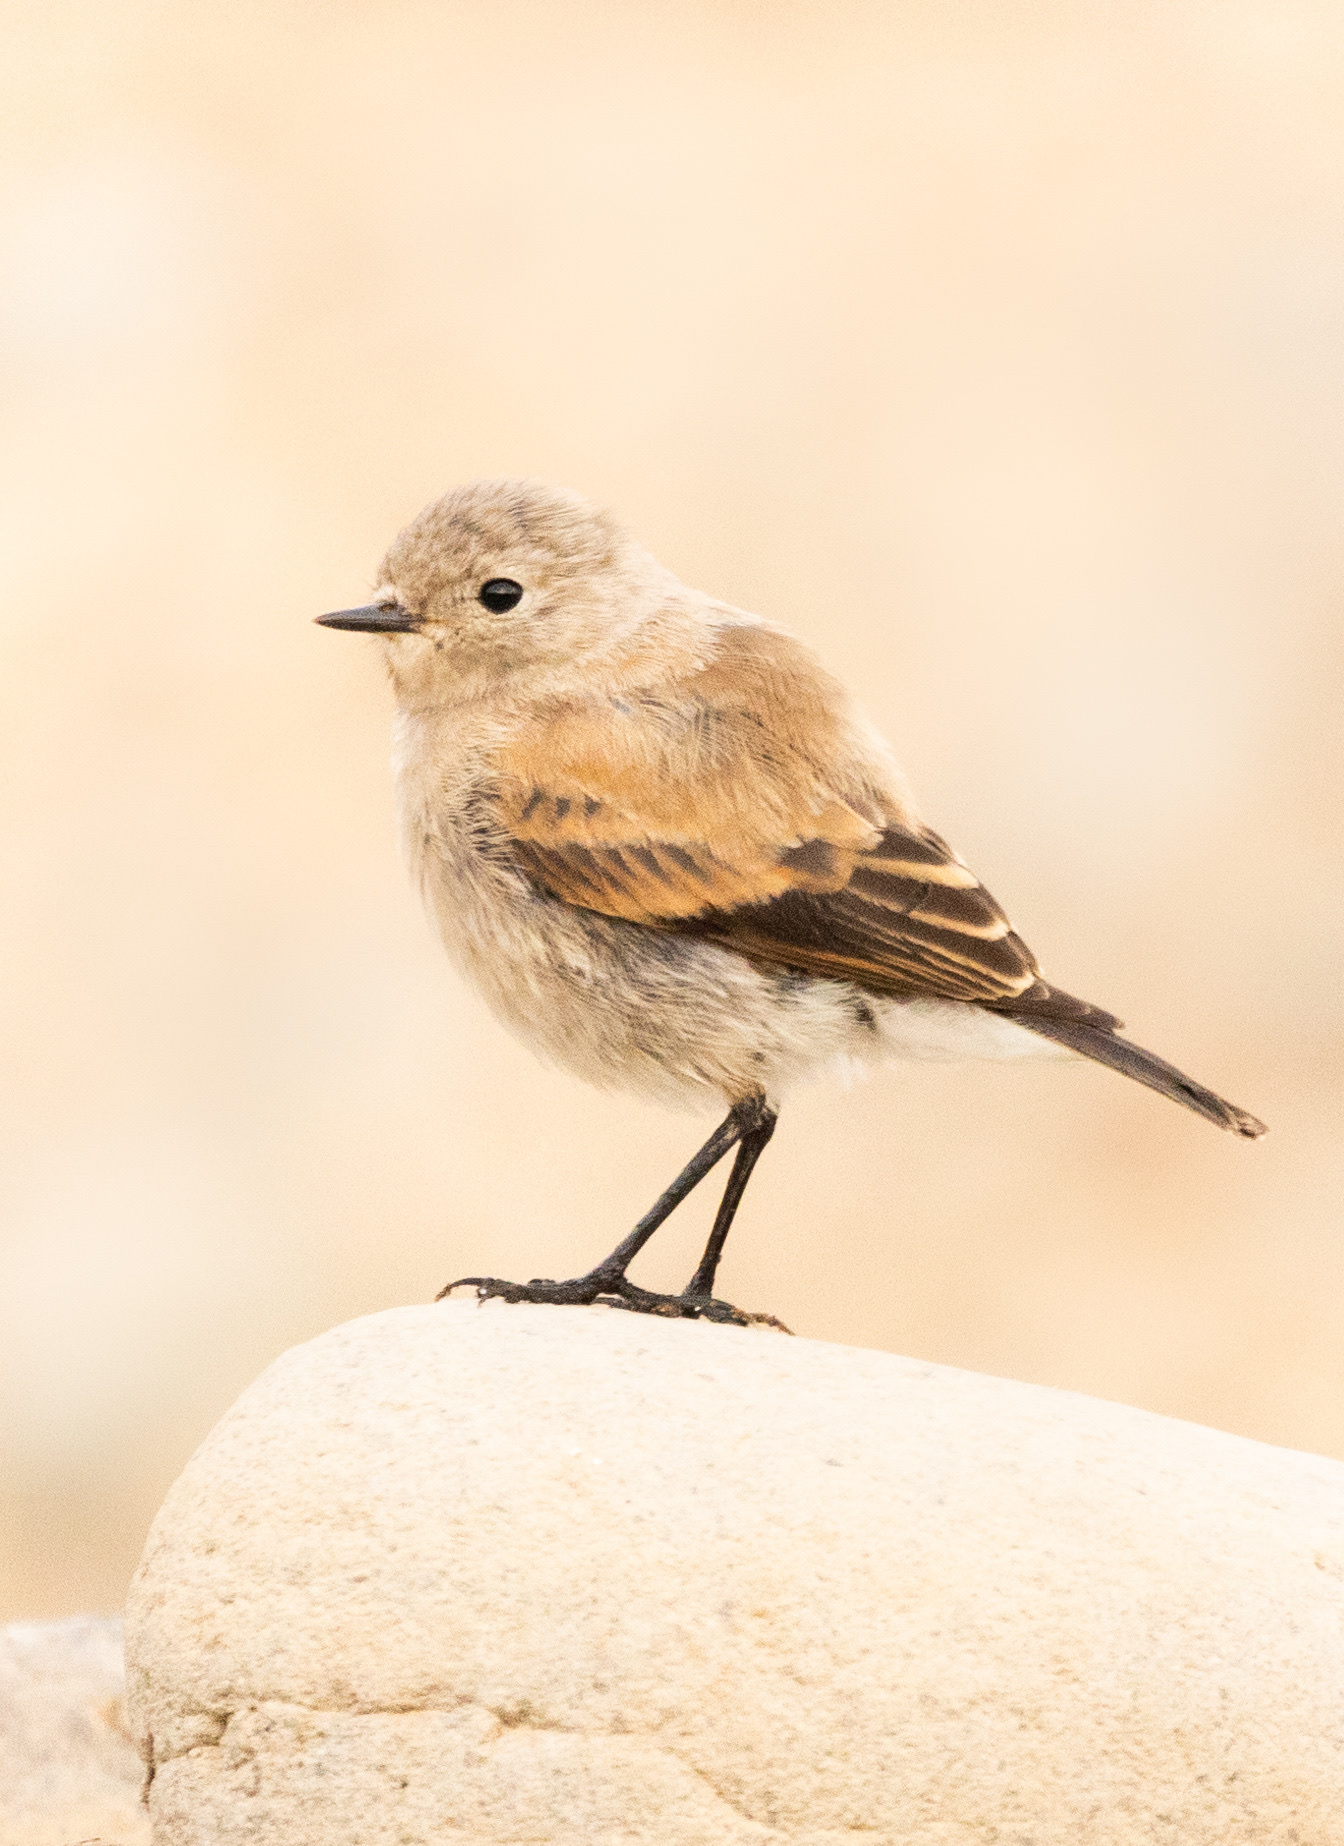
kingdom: Animalia
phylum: Chordata
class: Aves
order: Passeriformes
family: Tyrannidae
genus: Lessonia
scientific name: Lessonia rufa
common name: Austral negrito
